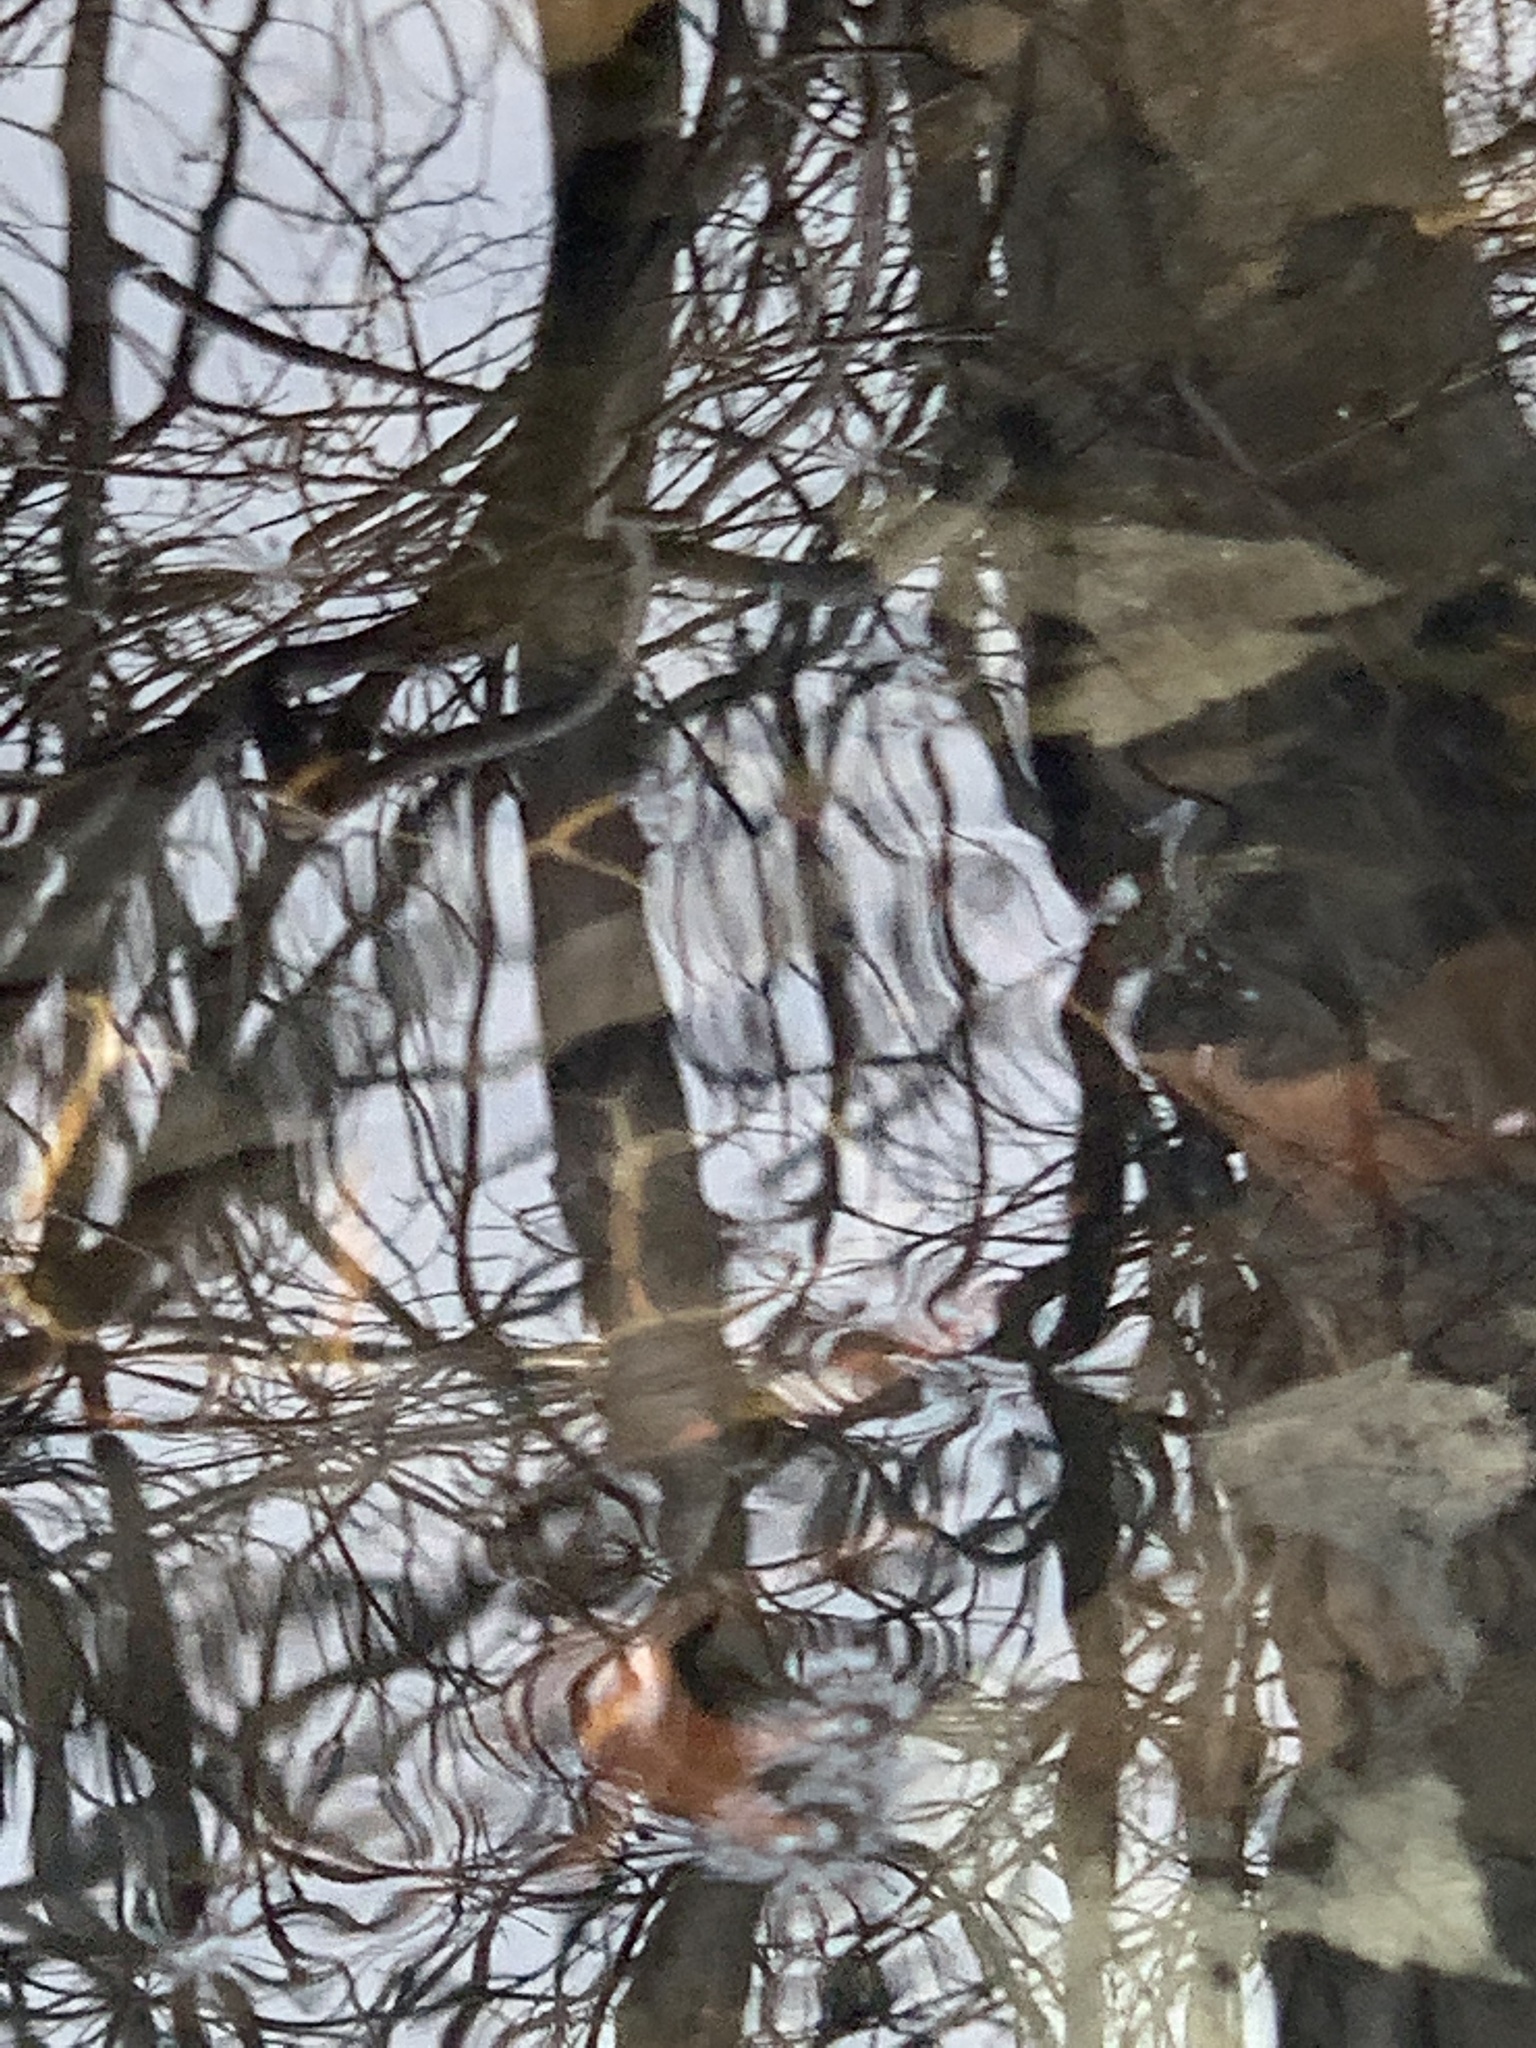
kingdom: Animalia
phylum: Chordata
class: Testudines
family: Emydidae
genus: Chrysemys
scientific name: Chrysemys picta
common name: Painted turtle
